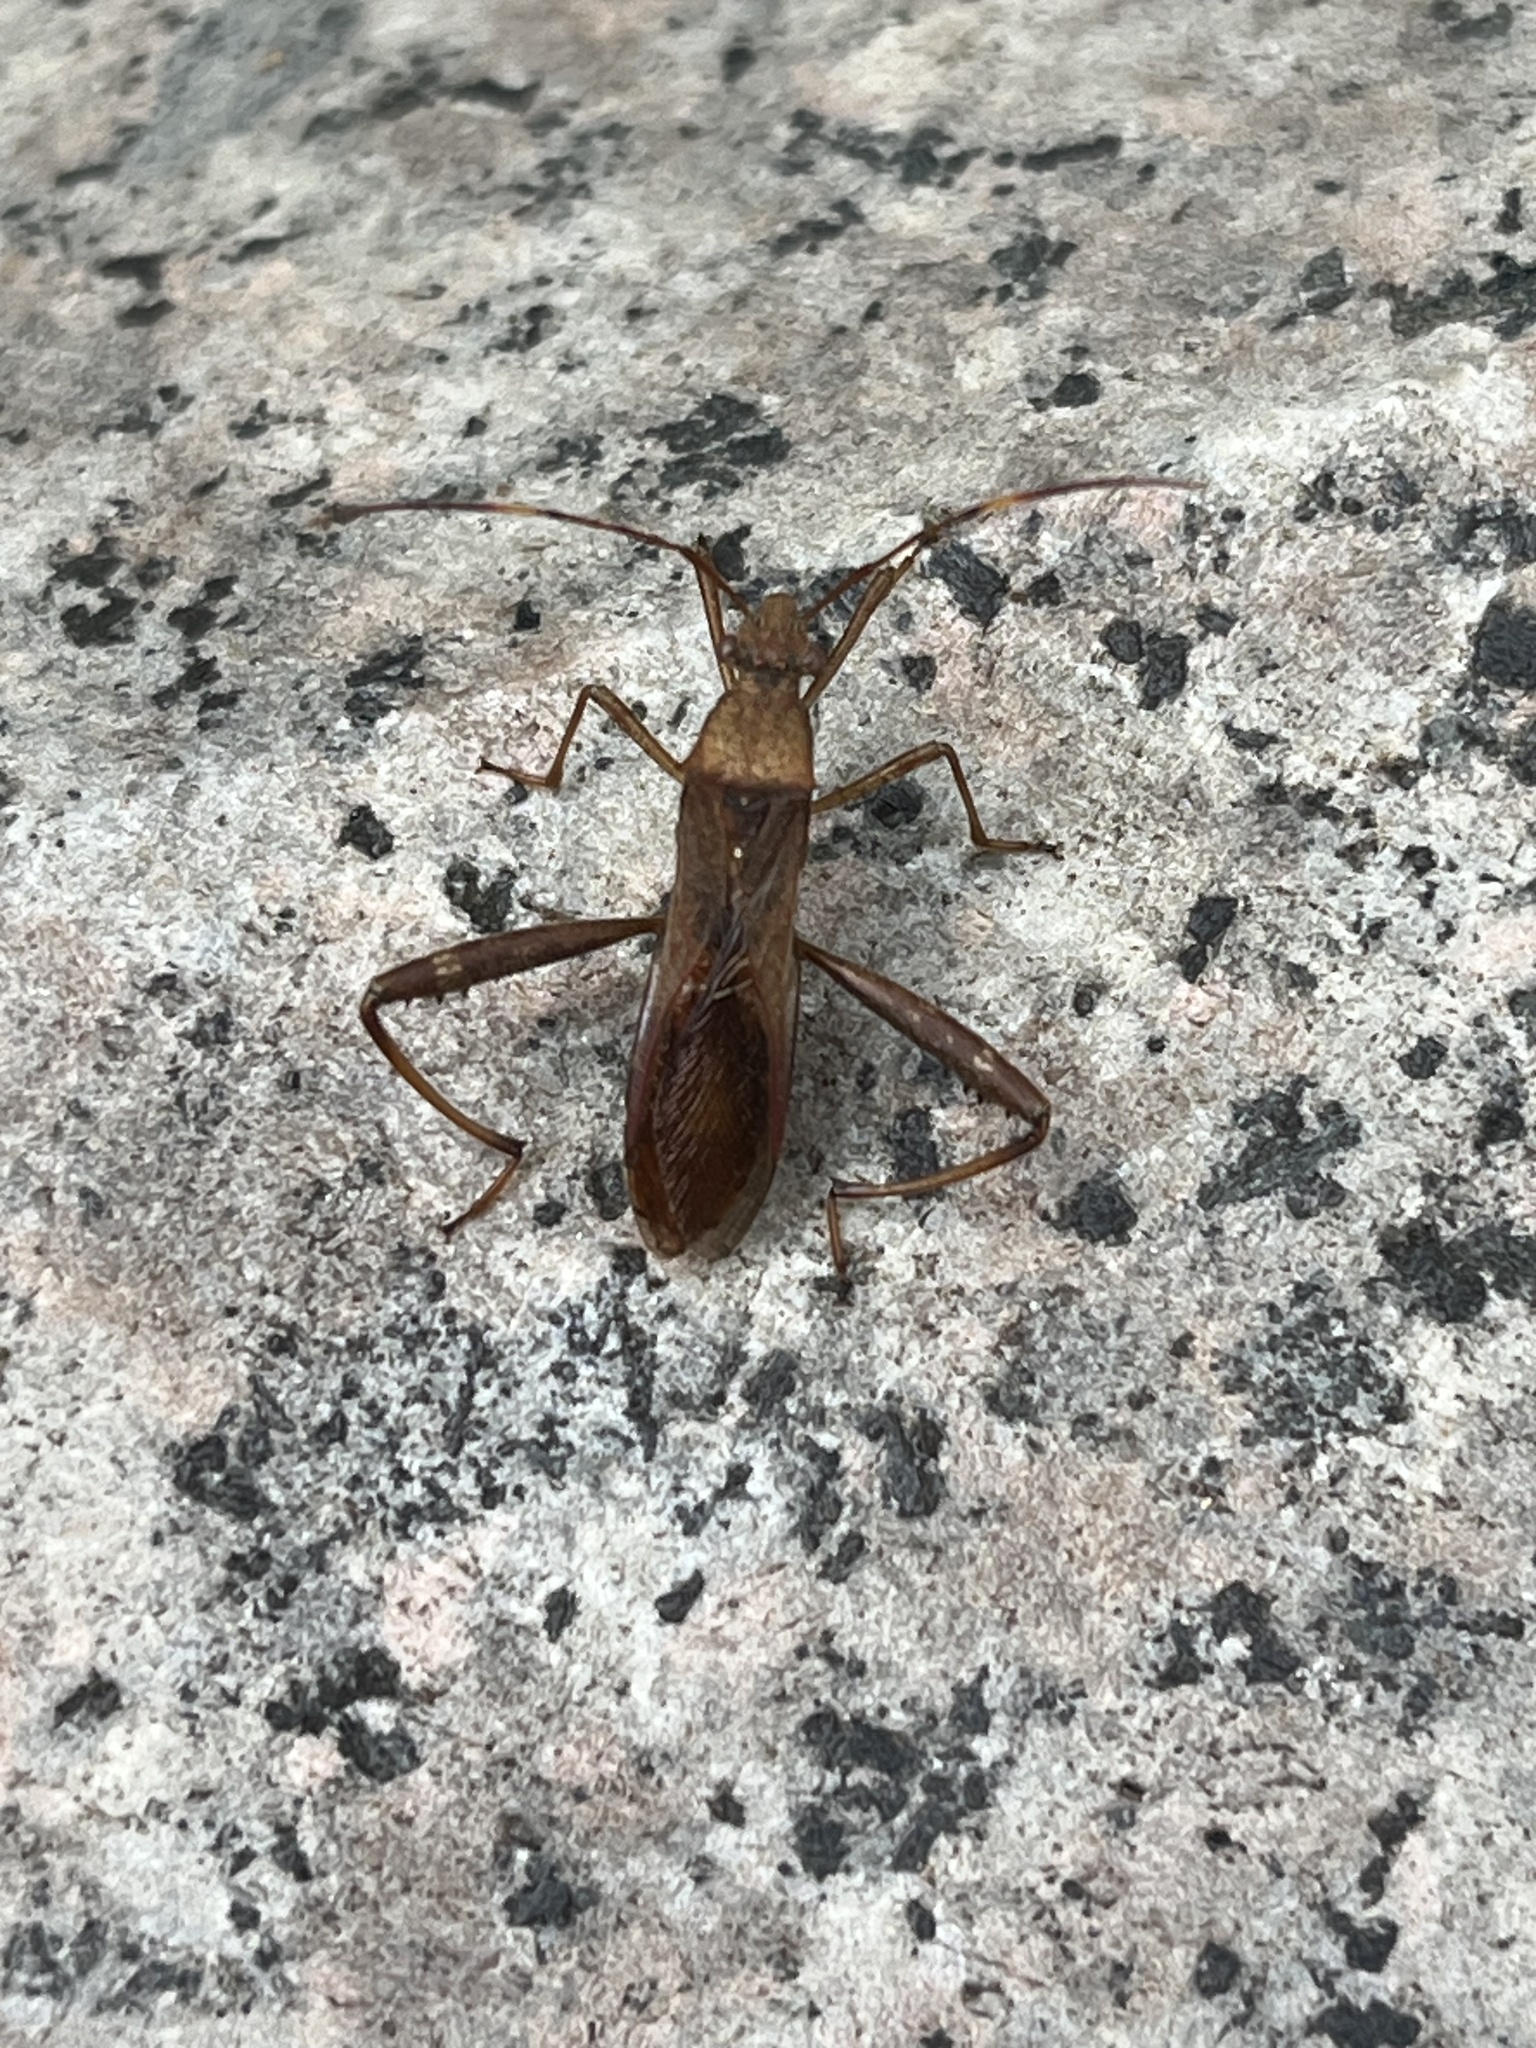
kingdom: Animalia
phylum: Arthropoda
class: Insecta
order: Hemiptera
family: Alydidae
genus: Riptortus
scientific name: Riptortus pedestris
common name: Bean bug
